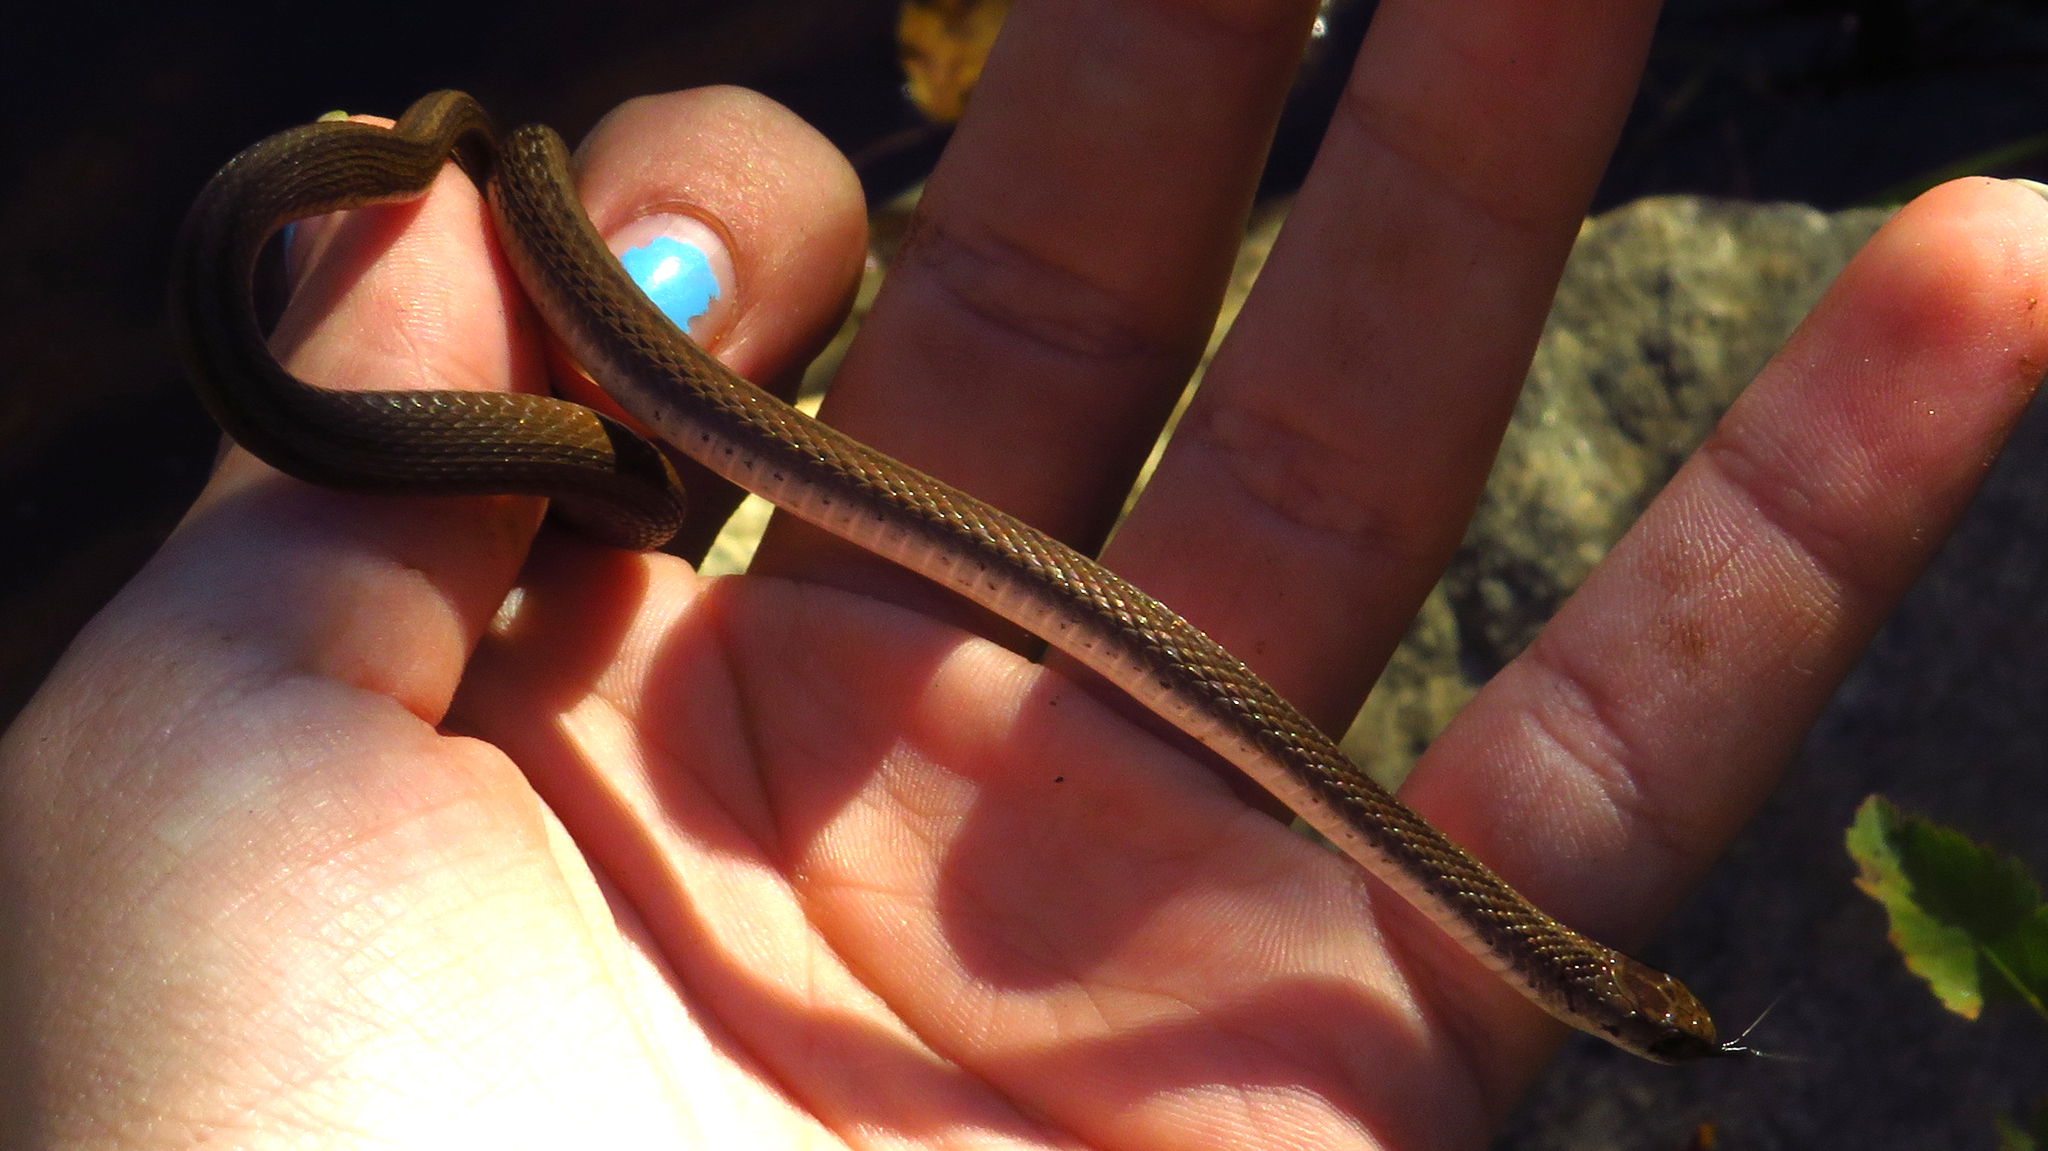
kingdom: Animalia
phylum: Chordata
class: Squamata
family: Colubridae
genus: Storeria
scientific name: Storeria dekayi
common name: (dekay’s) brown snake
